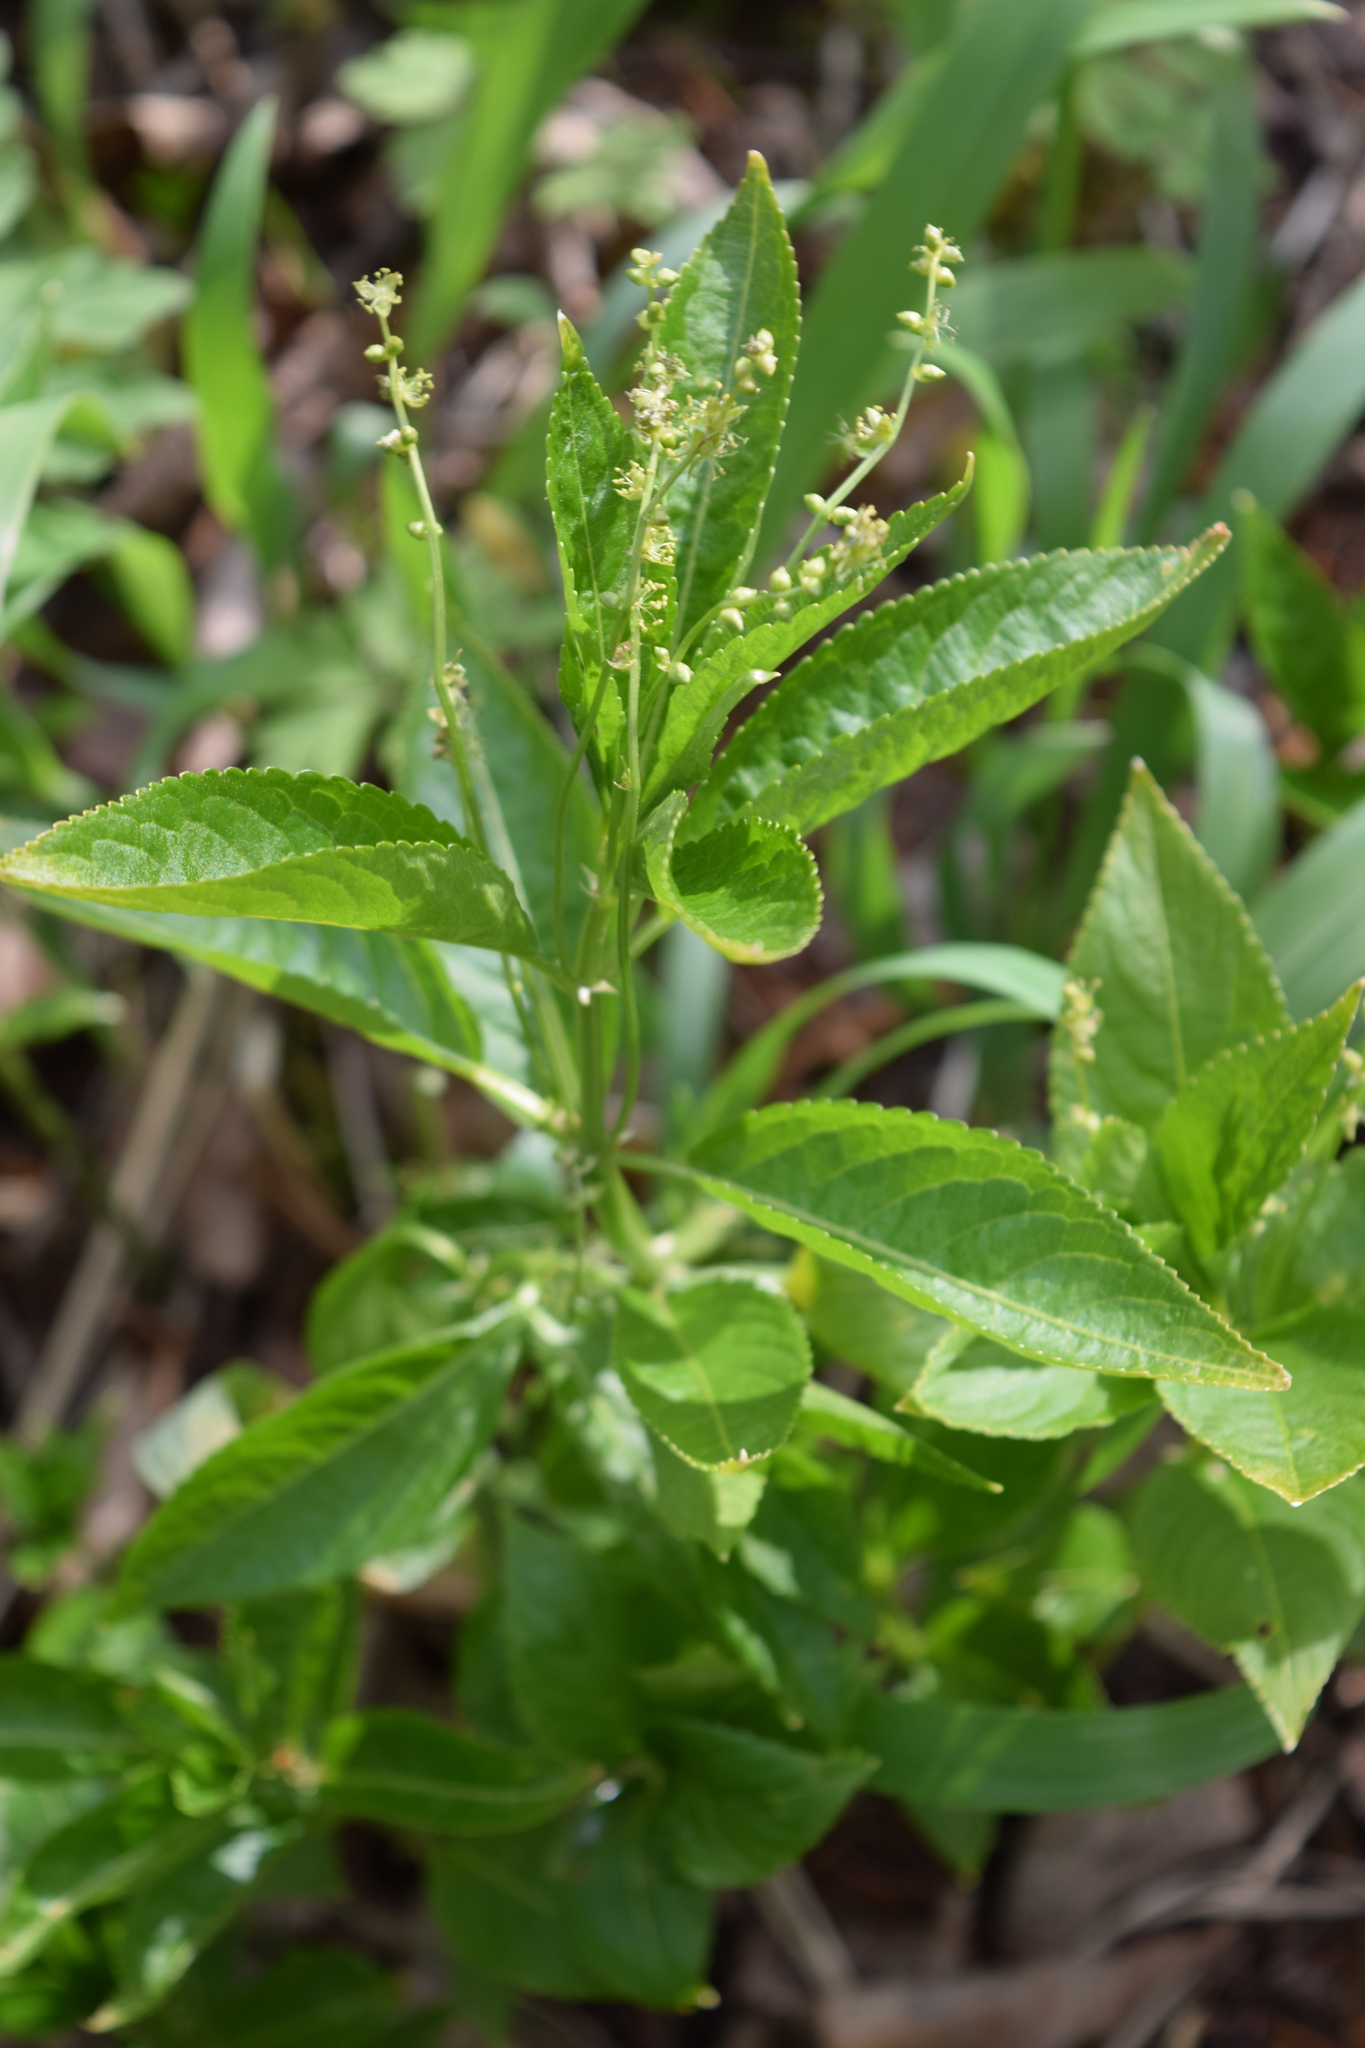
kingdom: Plantae
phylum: Tracheophyta
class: Magnoliopsida
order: Malpighiales
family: Euphorbiaceae
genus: Mercurialis
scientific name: Mercurialis perennis
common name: Dog mercury
